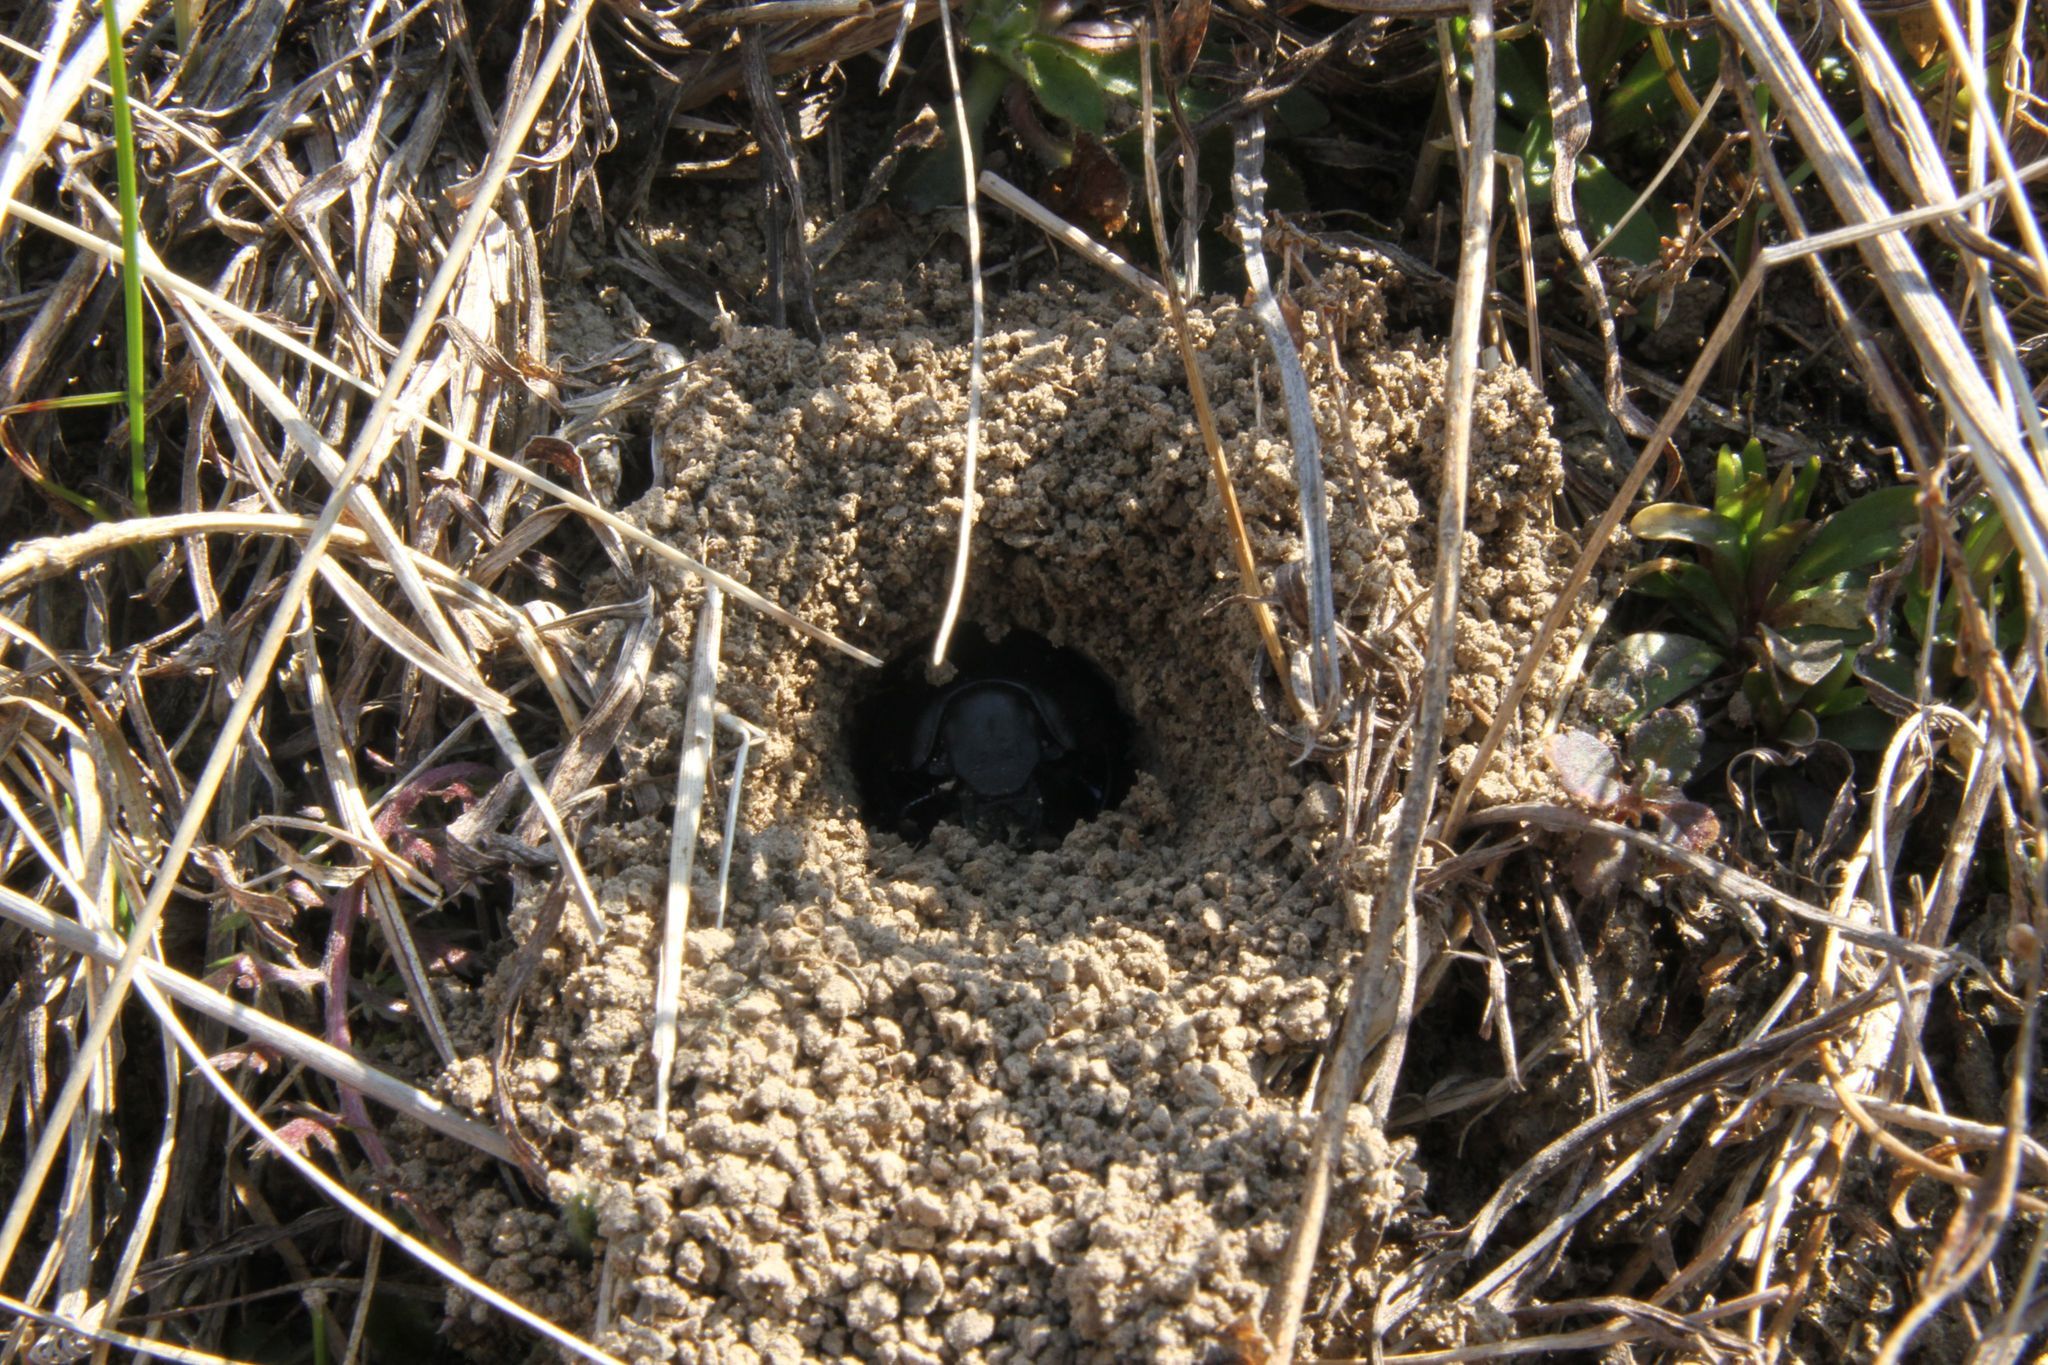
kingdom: Animalia
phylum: Arthropoda
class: Insecta
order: Coleoptera
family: Geotrupidae
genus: Lethrus
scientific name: Lethrus apterus
